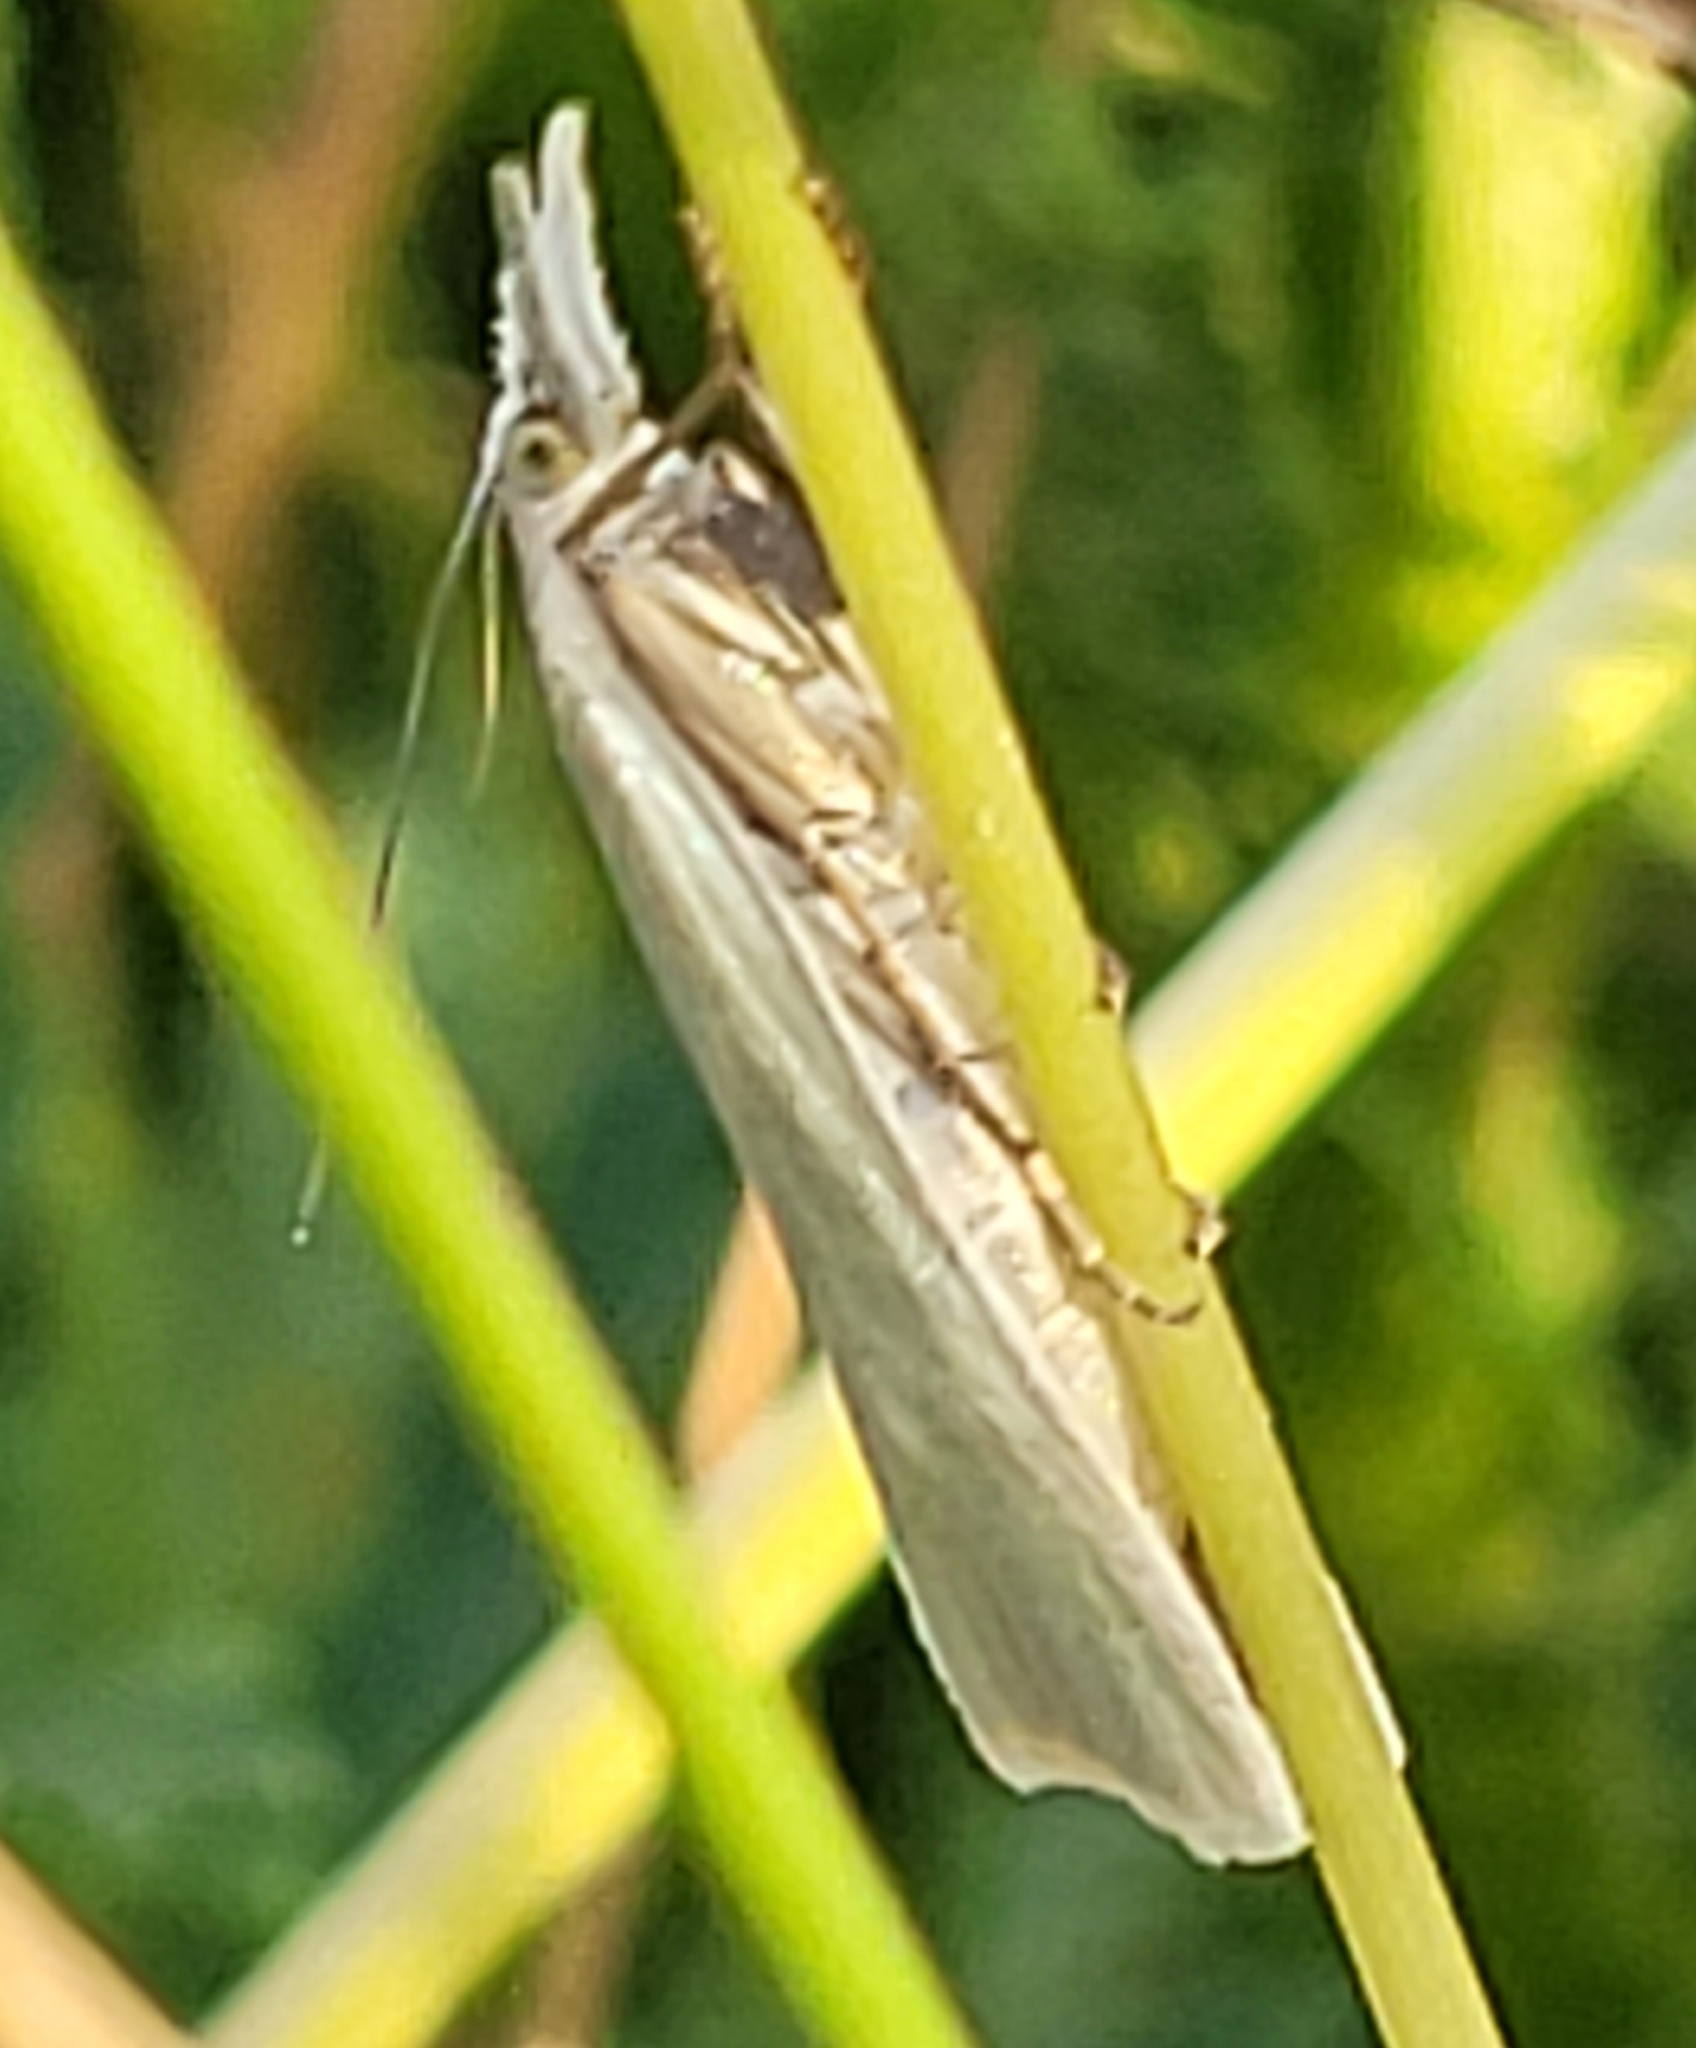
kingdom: Animalia
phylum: Arthropoda
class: Insecta
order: Lepidoptera
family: Crambidae
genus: Crambus
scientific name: Crambus perlellus
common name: Yellow satin veneer
